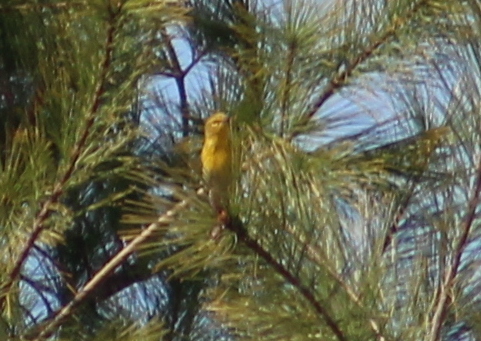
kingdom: Animalia
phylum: Chordata
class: Aves
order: Passeriformes
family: Parulidae
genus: Setophaga
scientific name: Setophaga pinus
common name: Pine warbler
